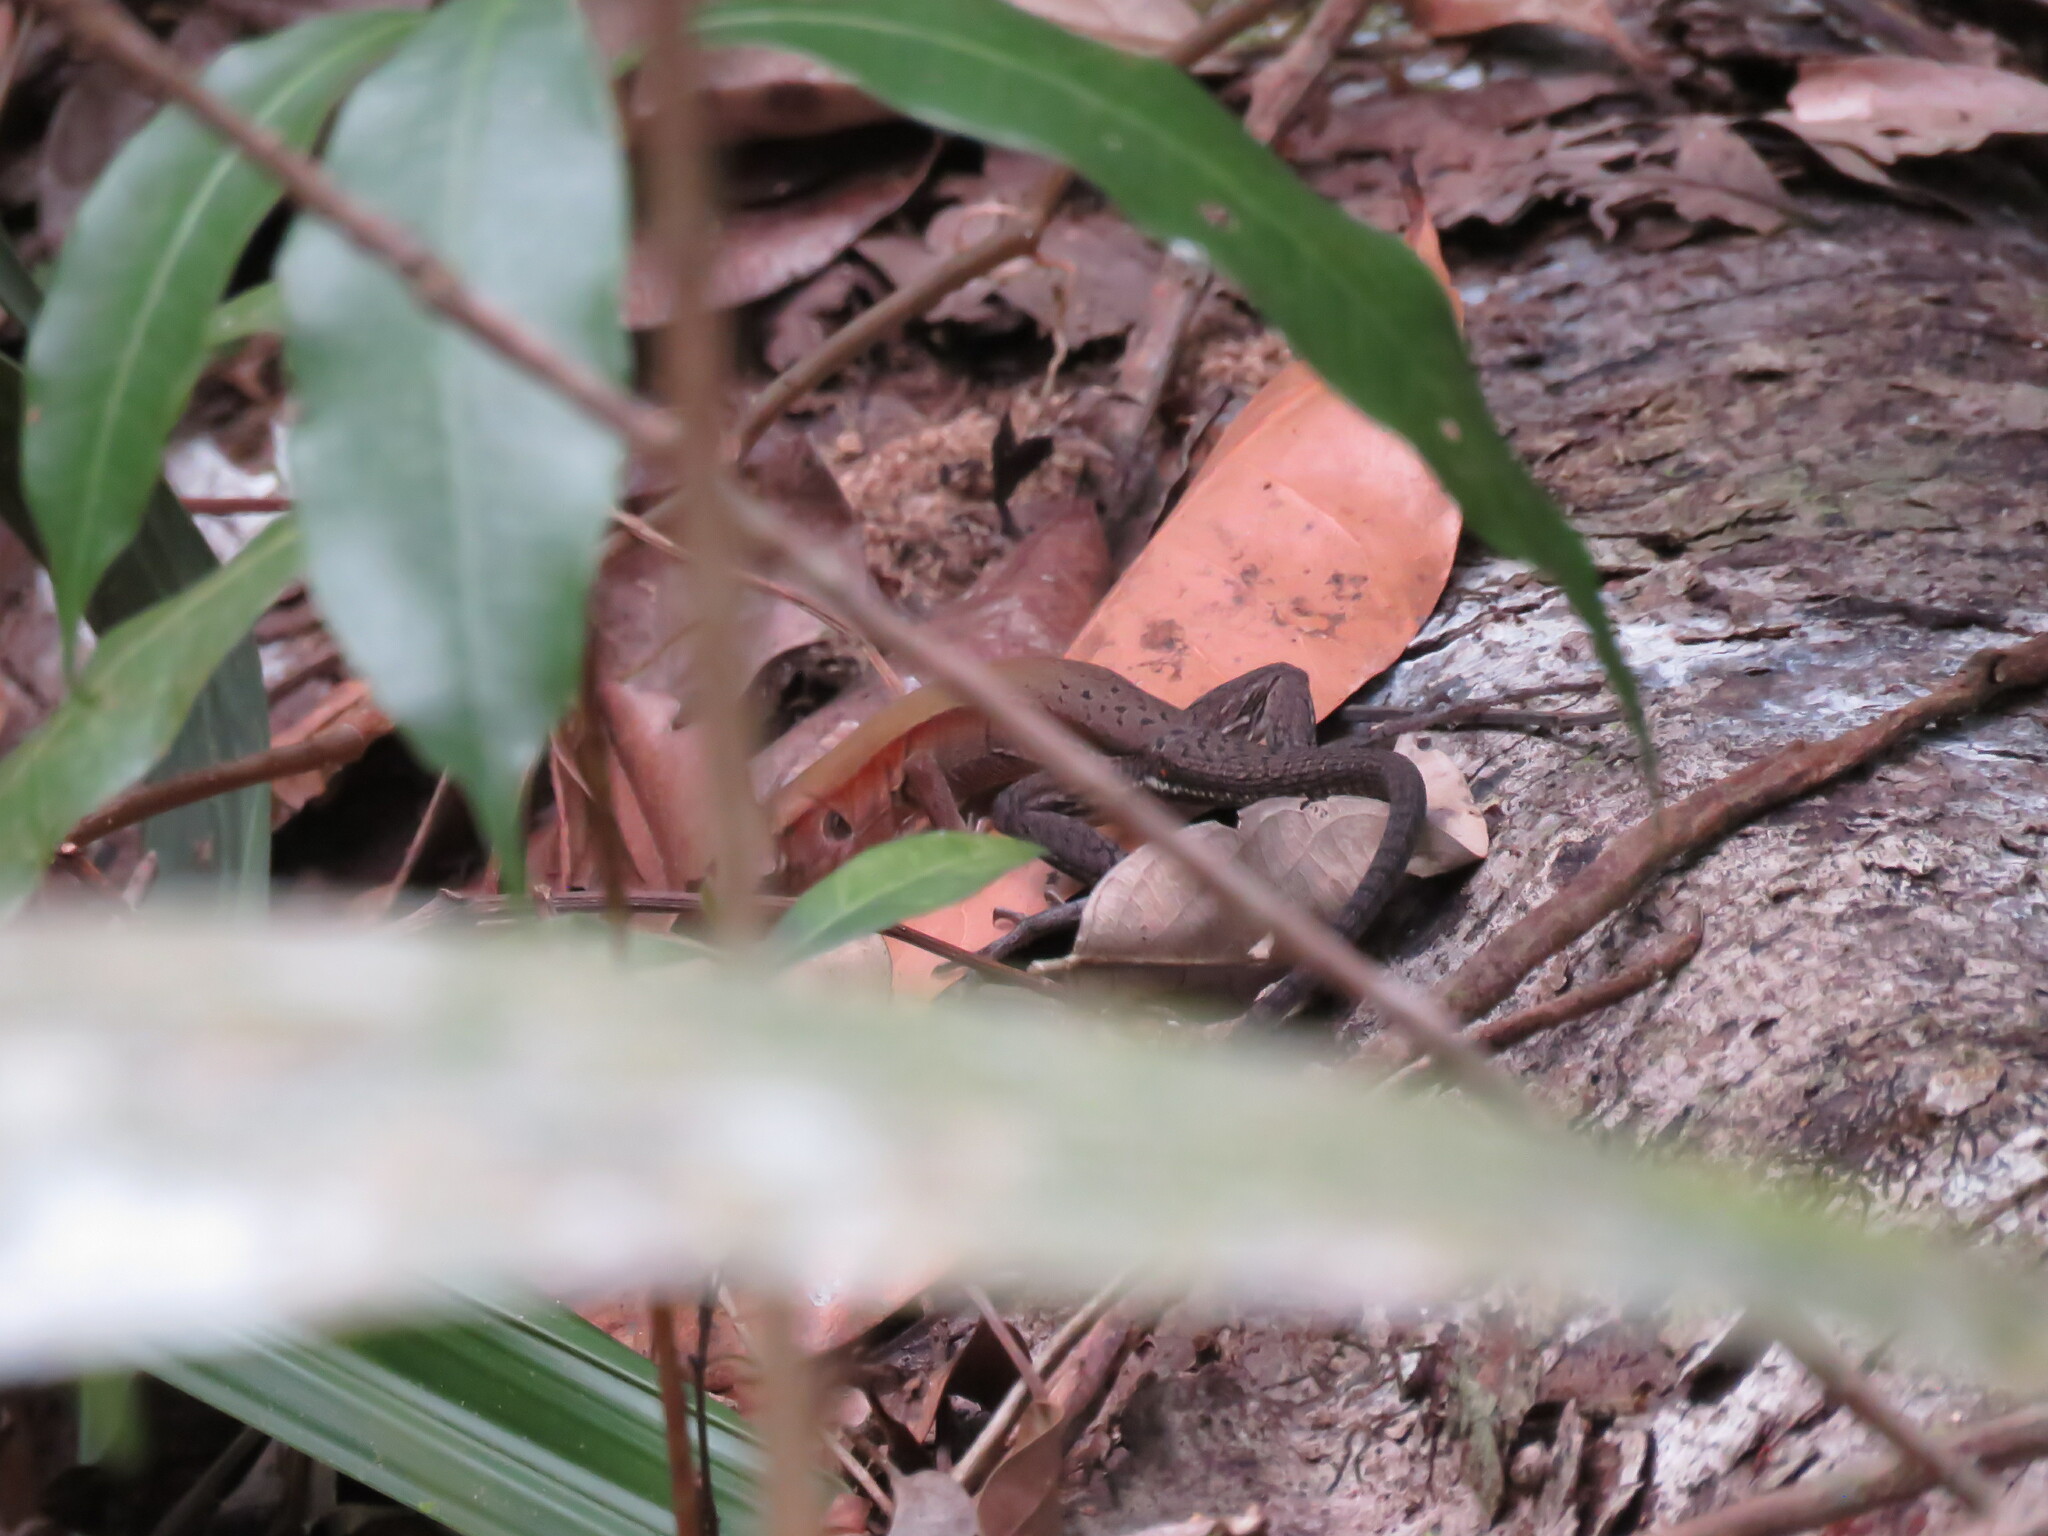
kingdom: Animalia
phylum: Chordata
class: Squamata
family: Teiidae
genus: Holcosus
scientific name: Holcosus undulatus
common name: Rainbow ameiva
